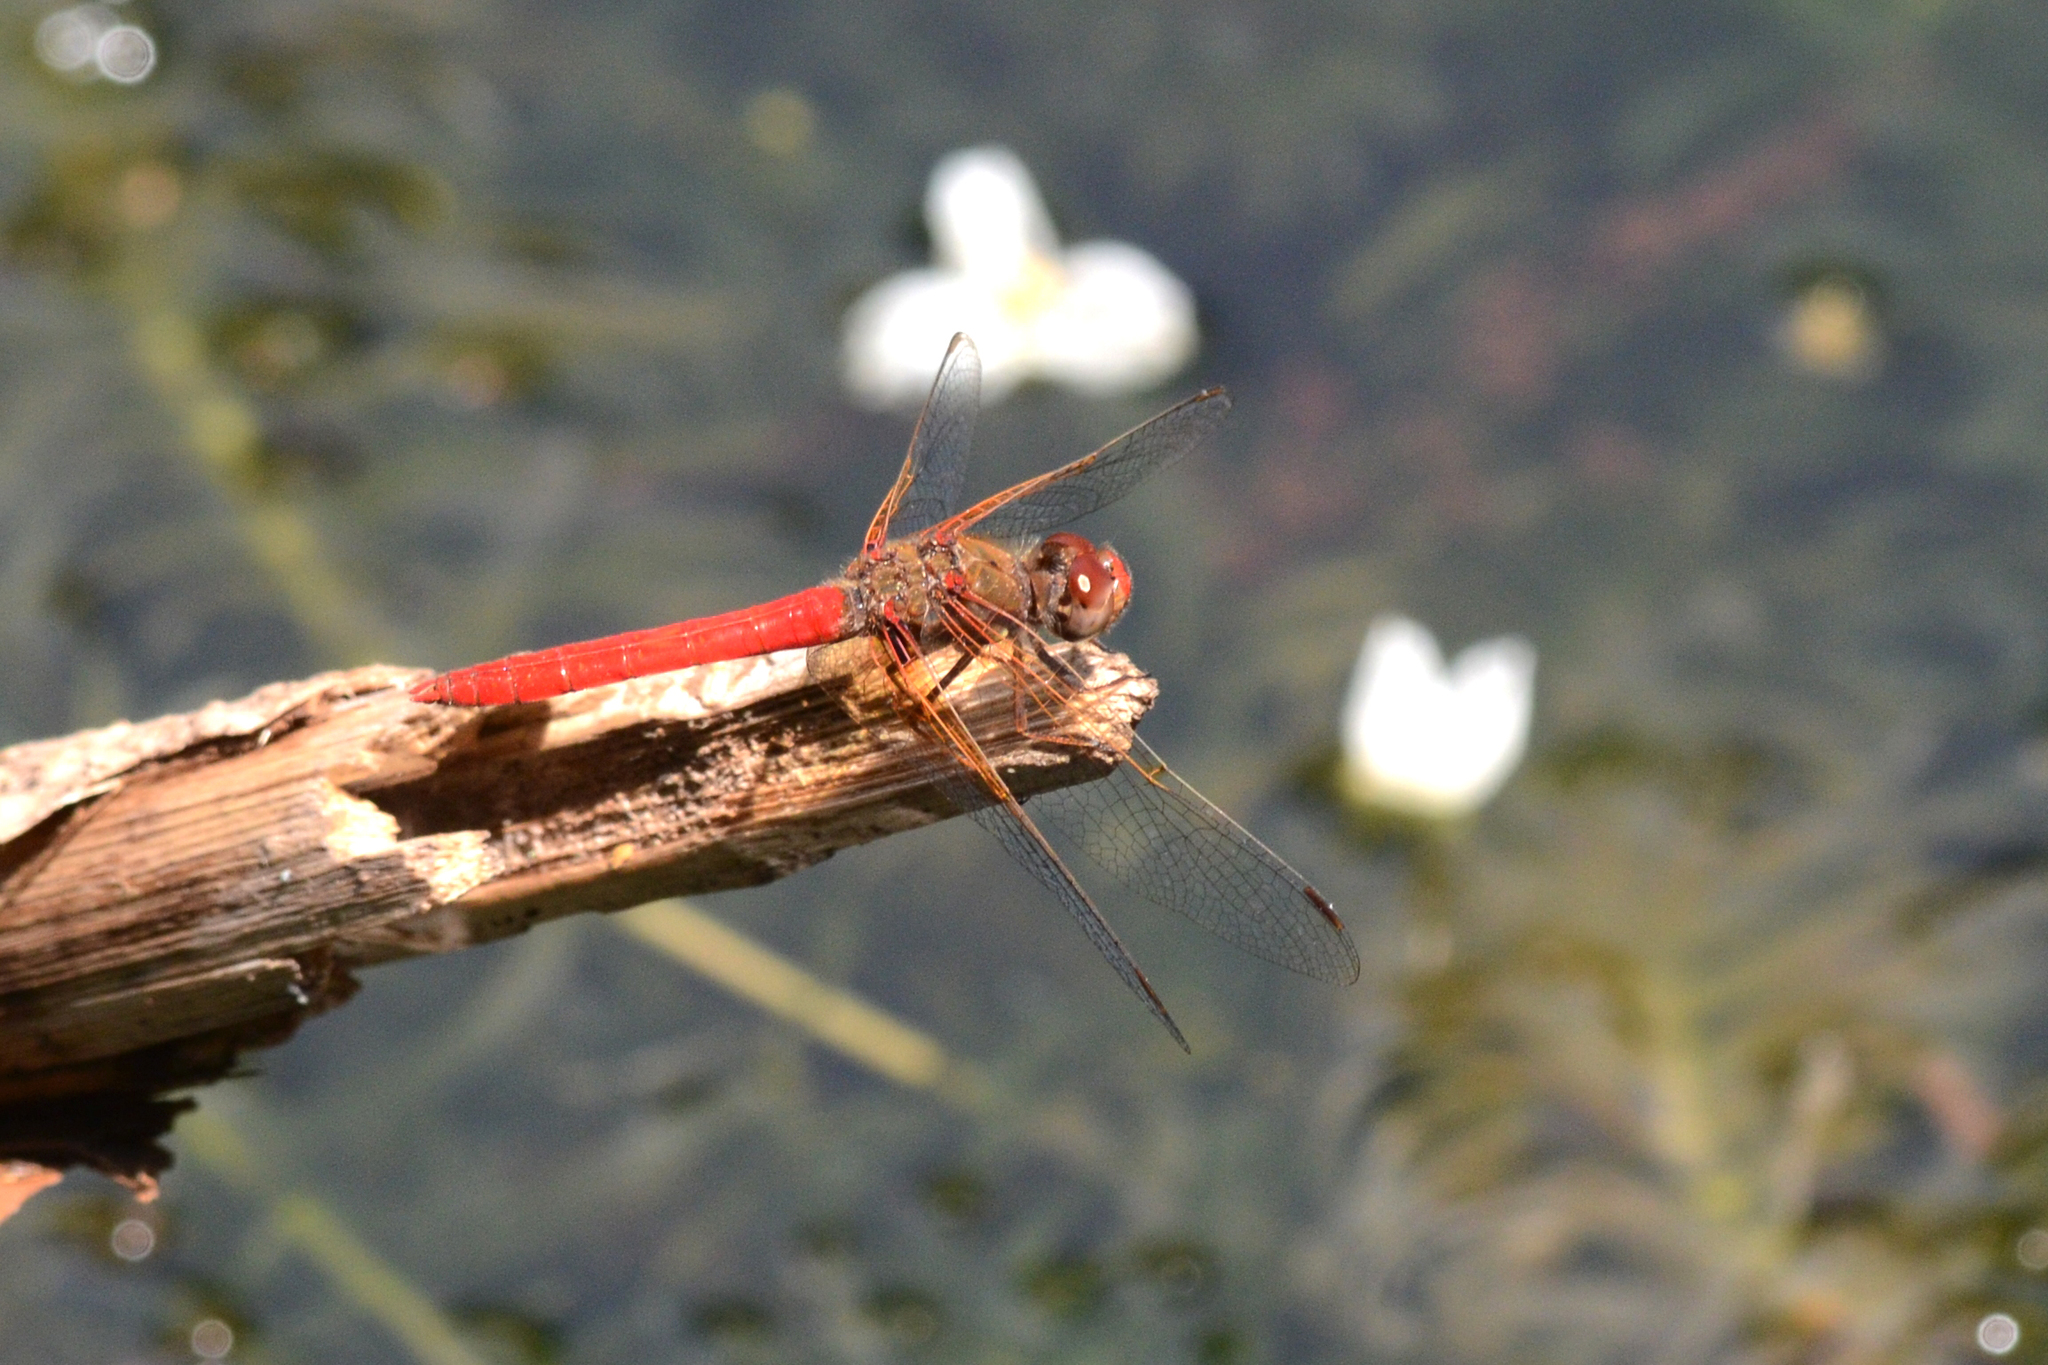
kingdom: Animalia
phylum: Arthropoda
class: Insecta
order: Odonata
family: Libellulidae
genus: Sympetrum
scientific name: Sympetrum illotum
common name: Cardinal meadowhawk
